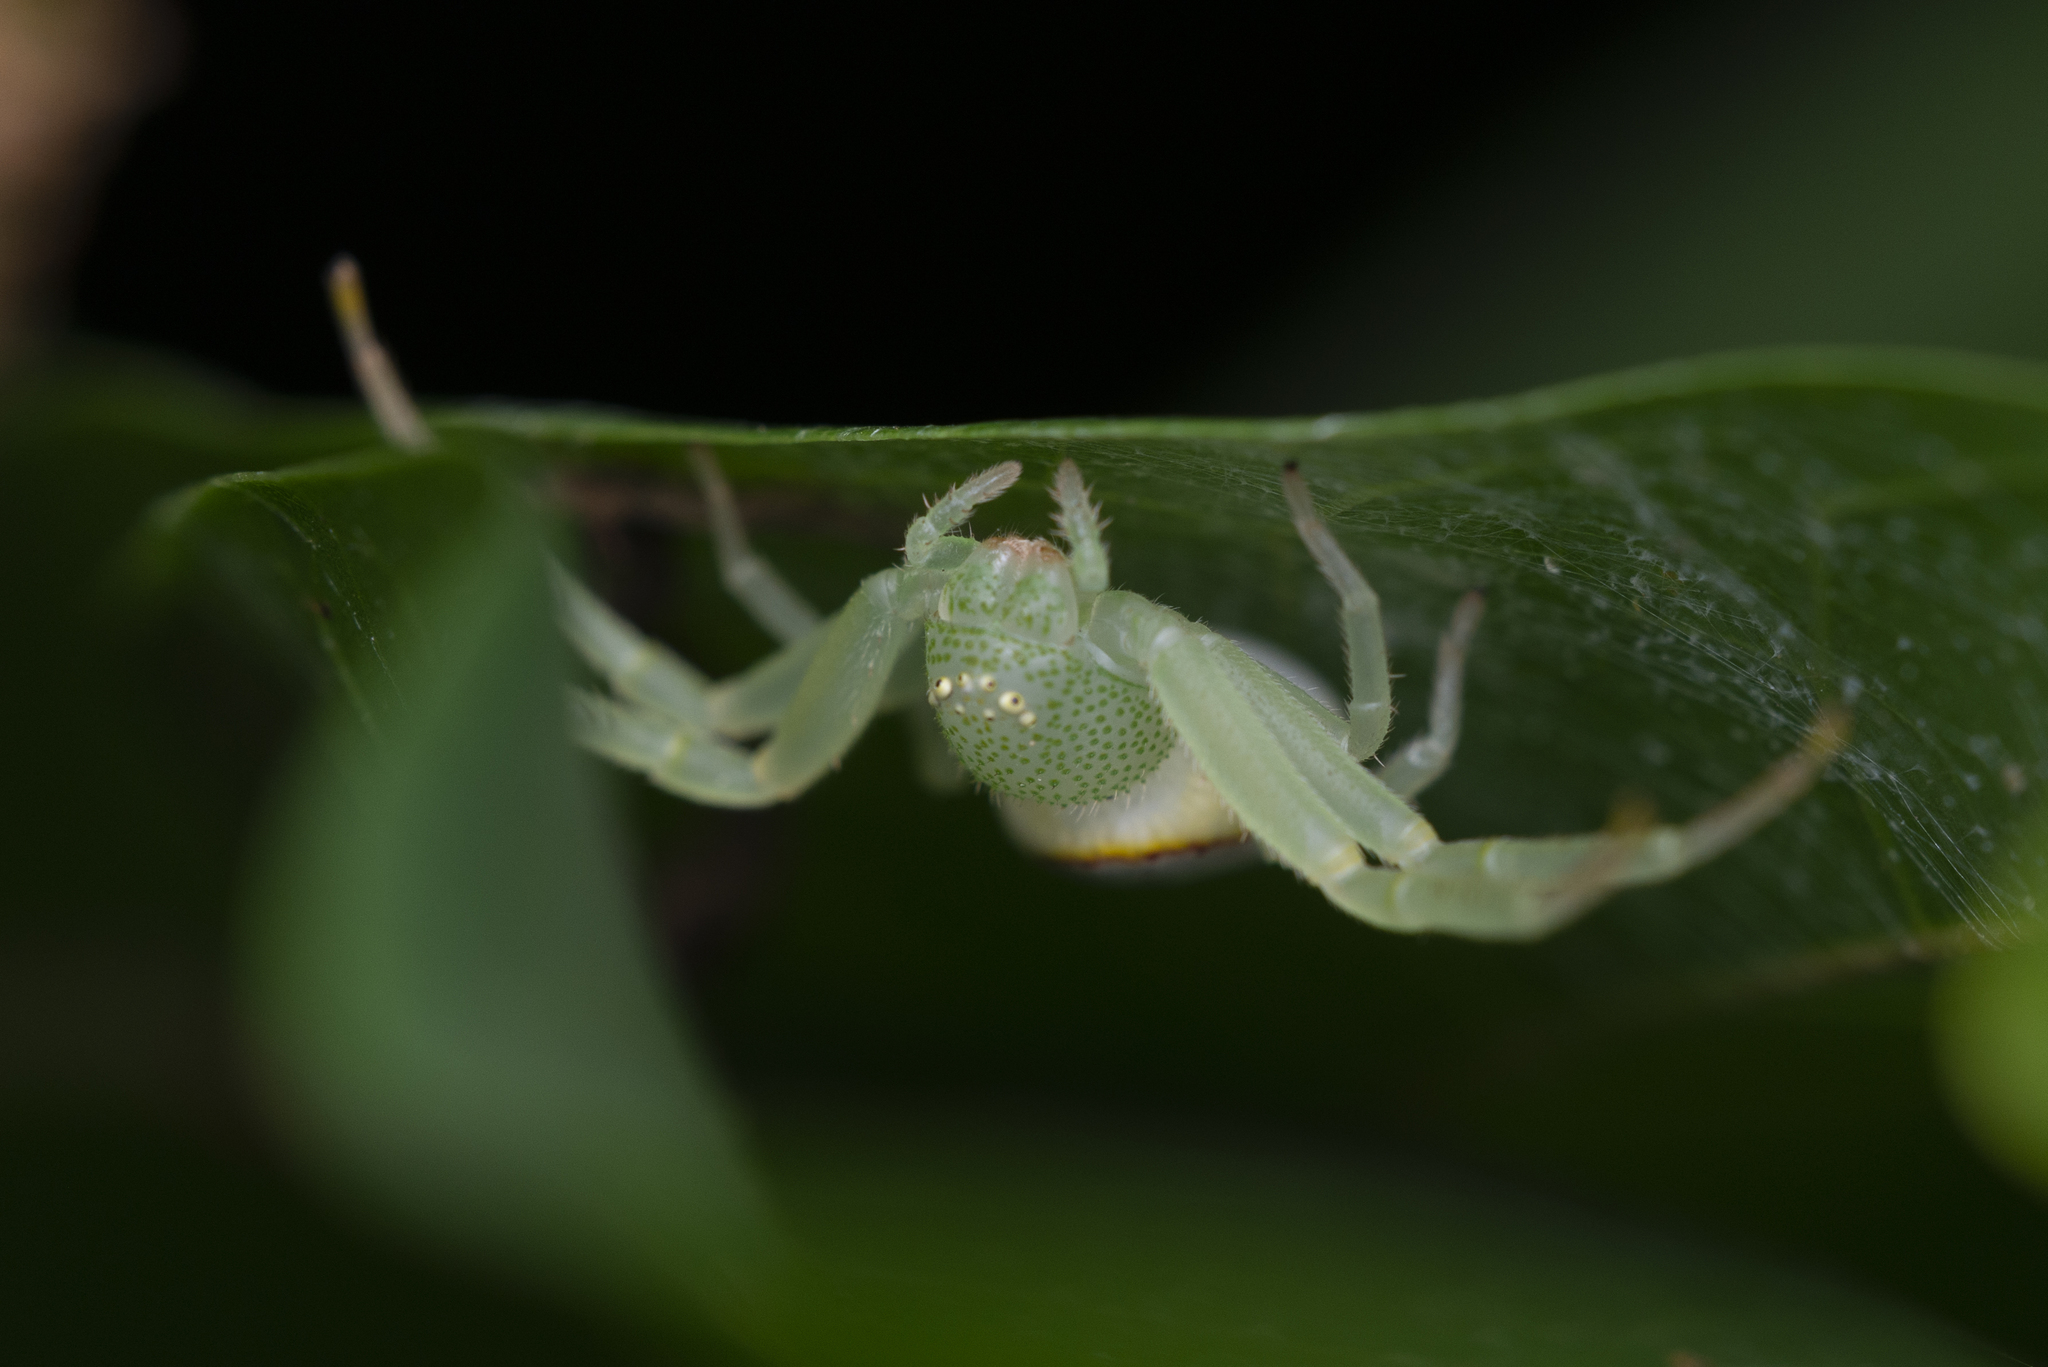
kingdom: Animalia
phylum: Arthropoda
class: Arachnida
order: Araneae
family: Thomisidae
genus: Diaea
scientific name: Diaea simplex
